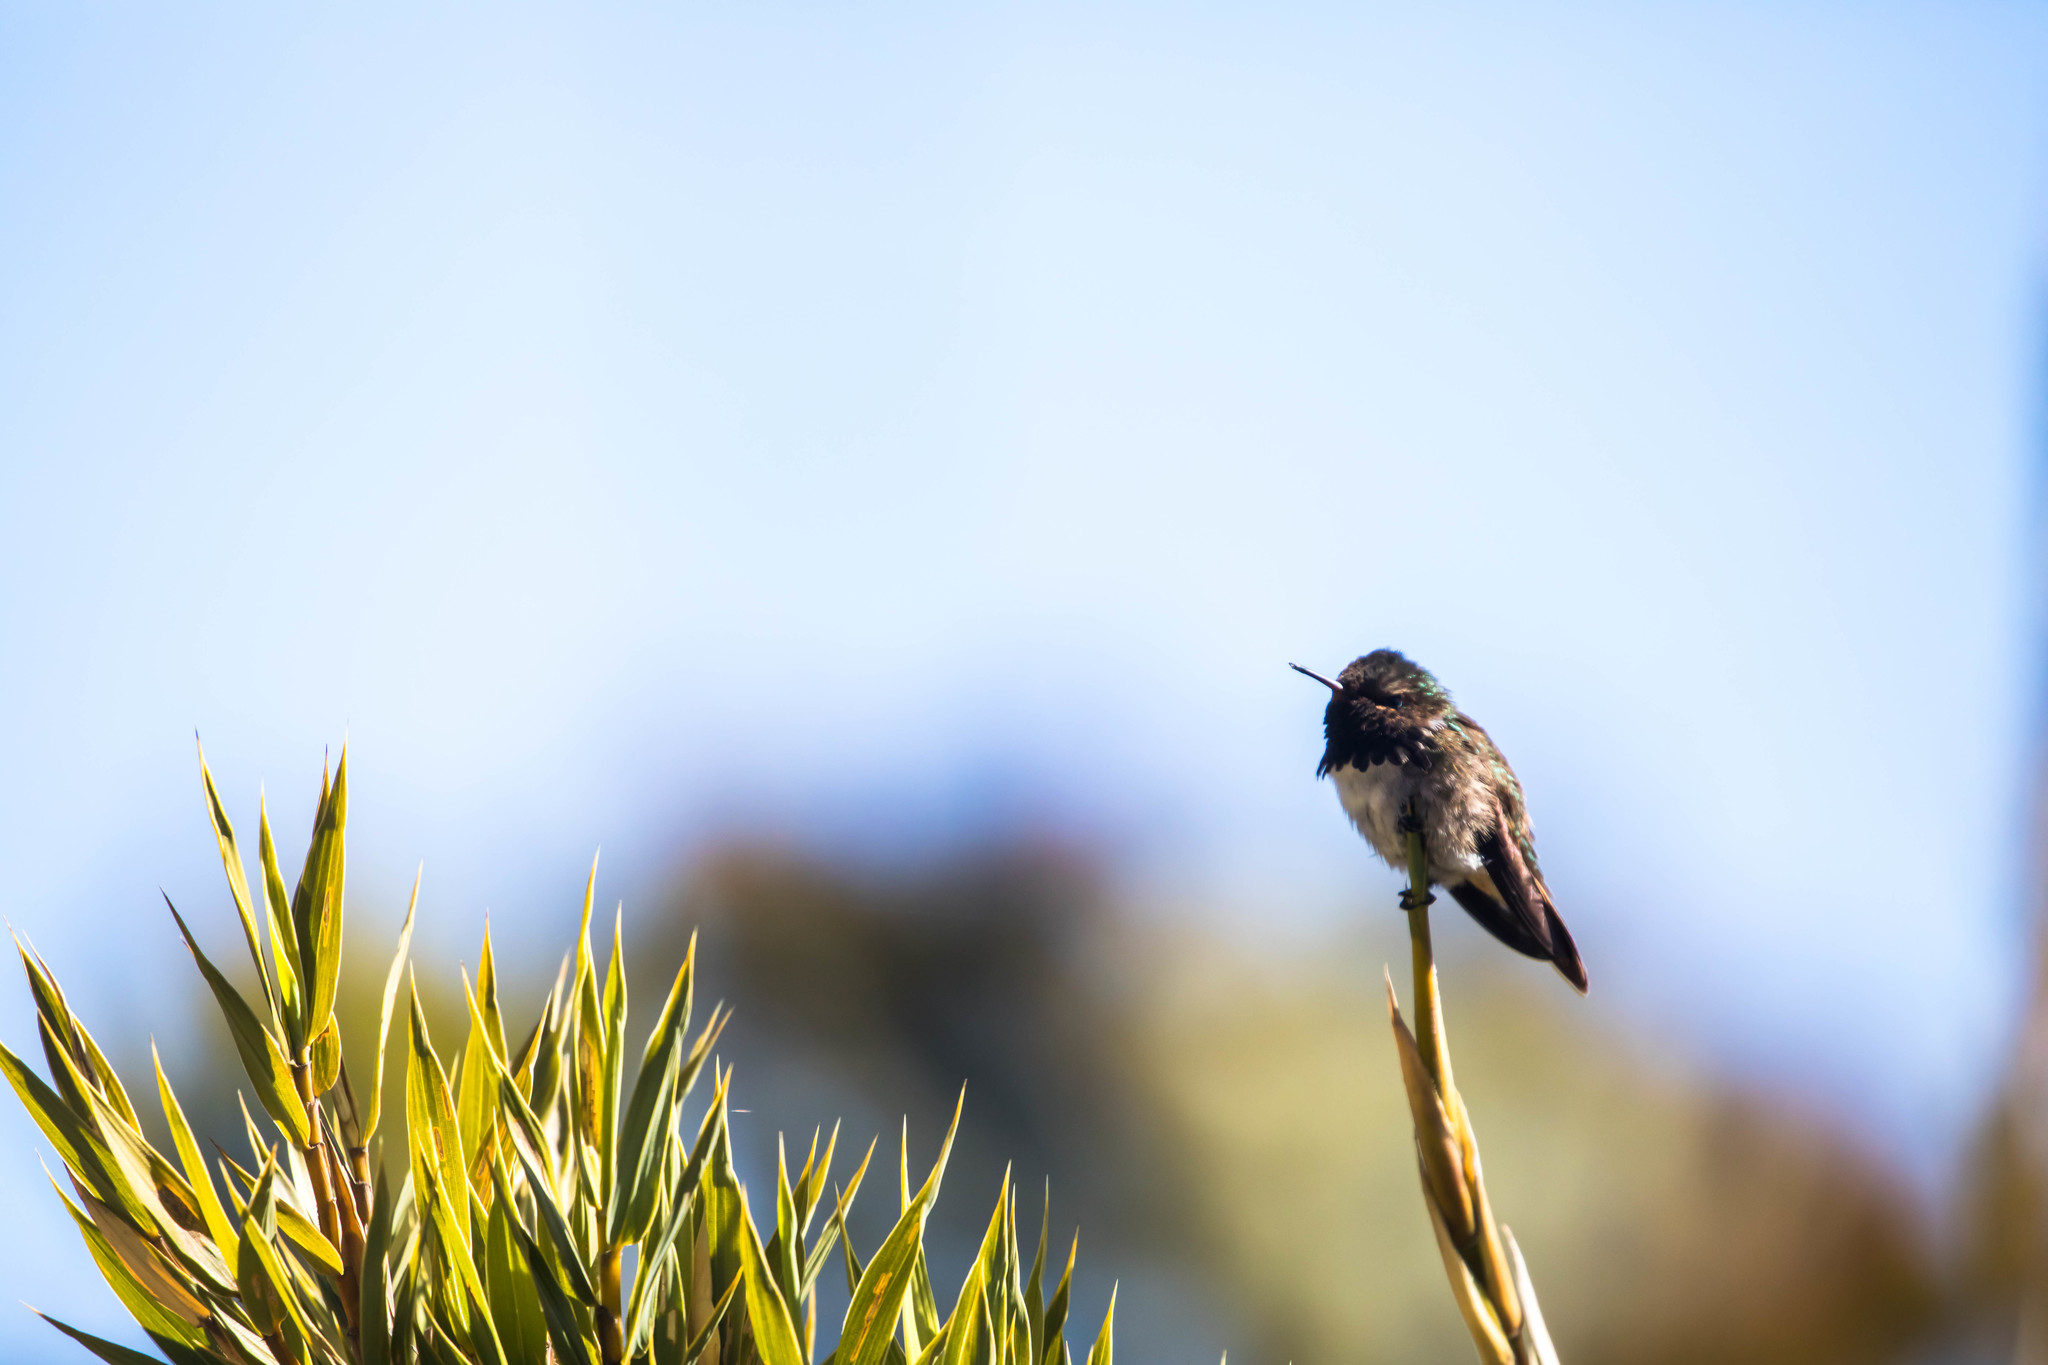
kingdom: Animalia
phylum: Chordata
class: Aves
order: Apodiformes
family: Trochilidae
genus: Selasphorus
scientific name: Selasphorus flammula
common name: Volcano hummingbird
